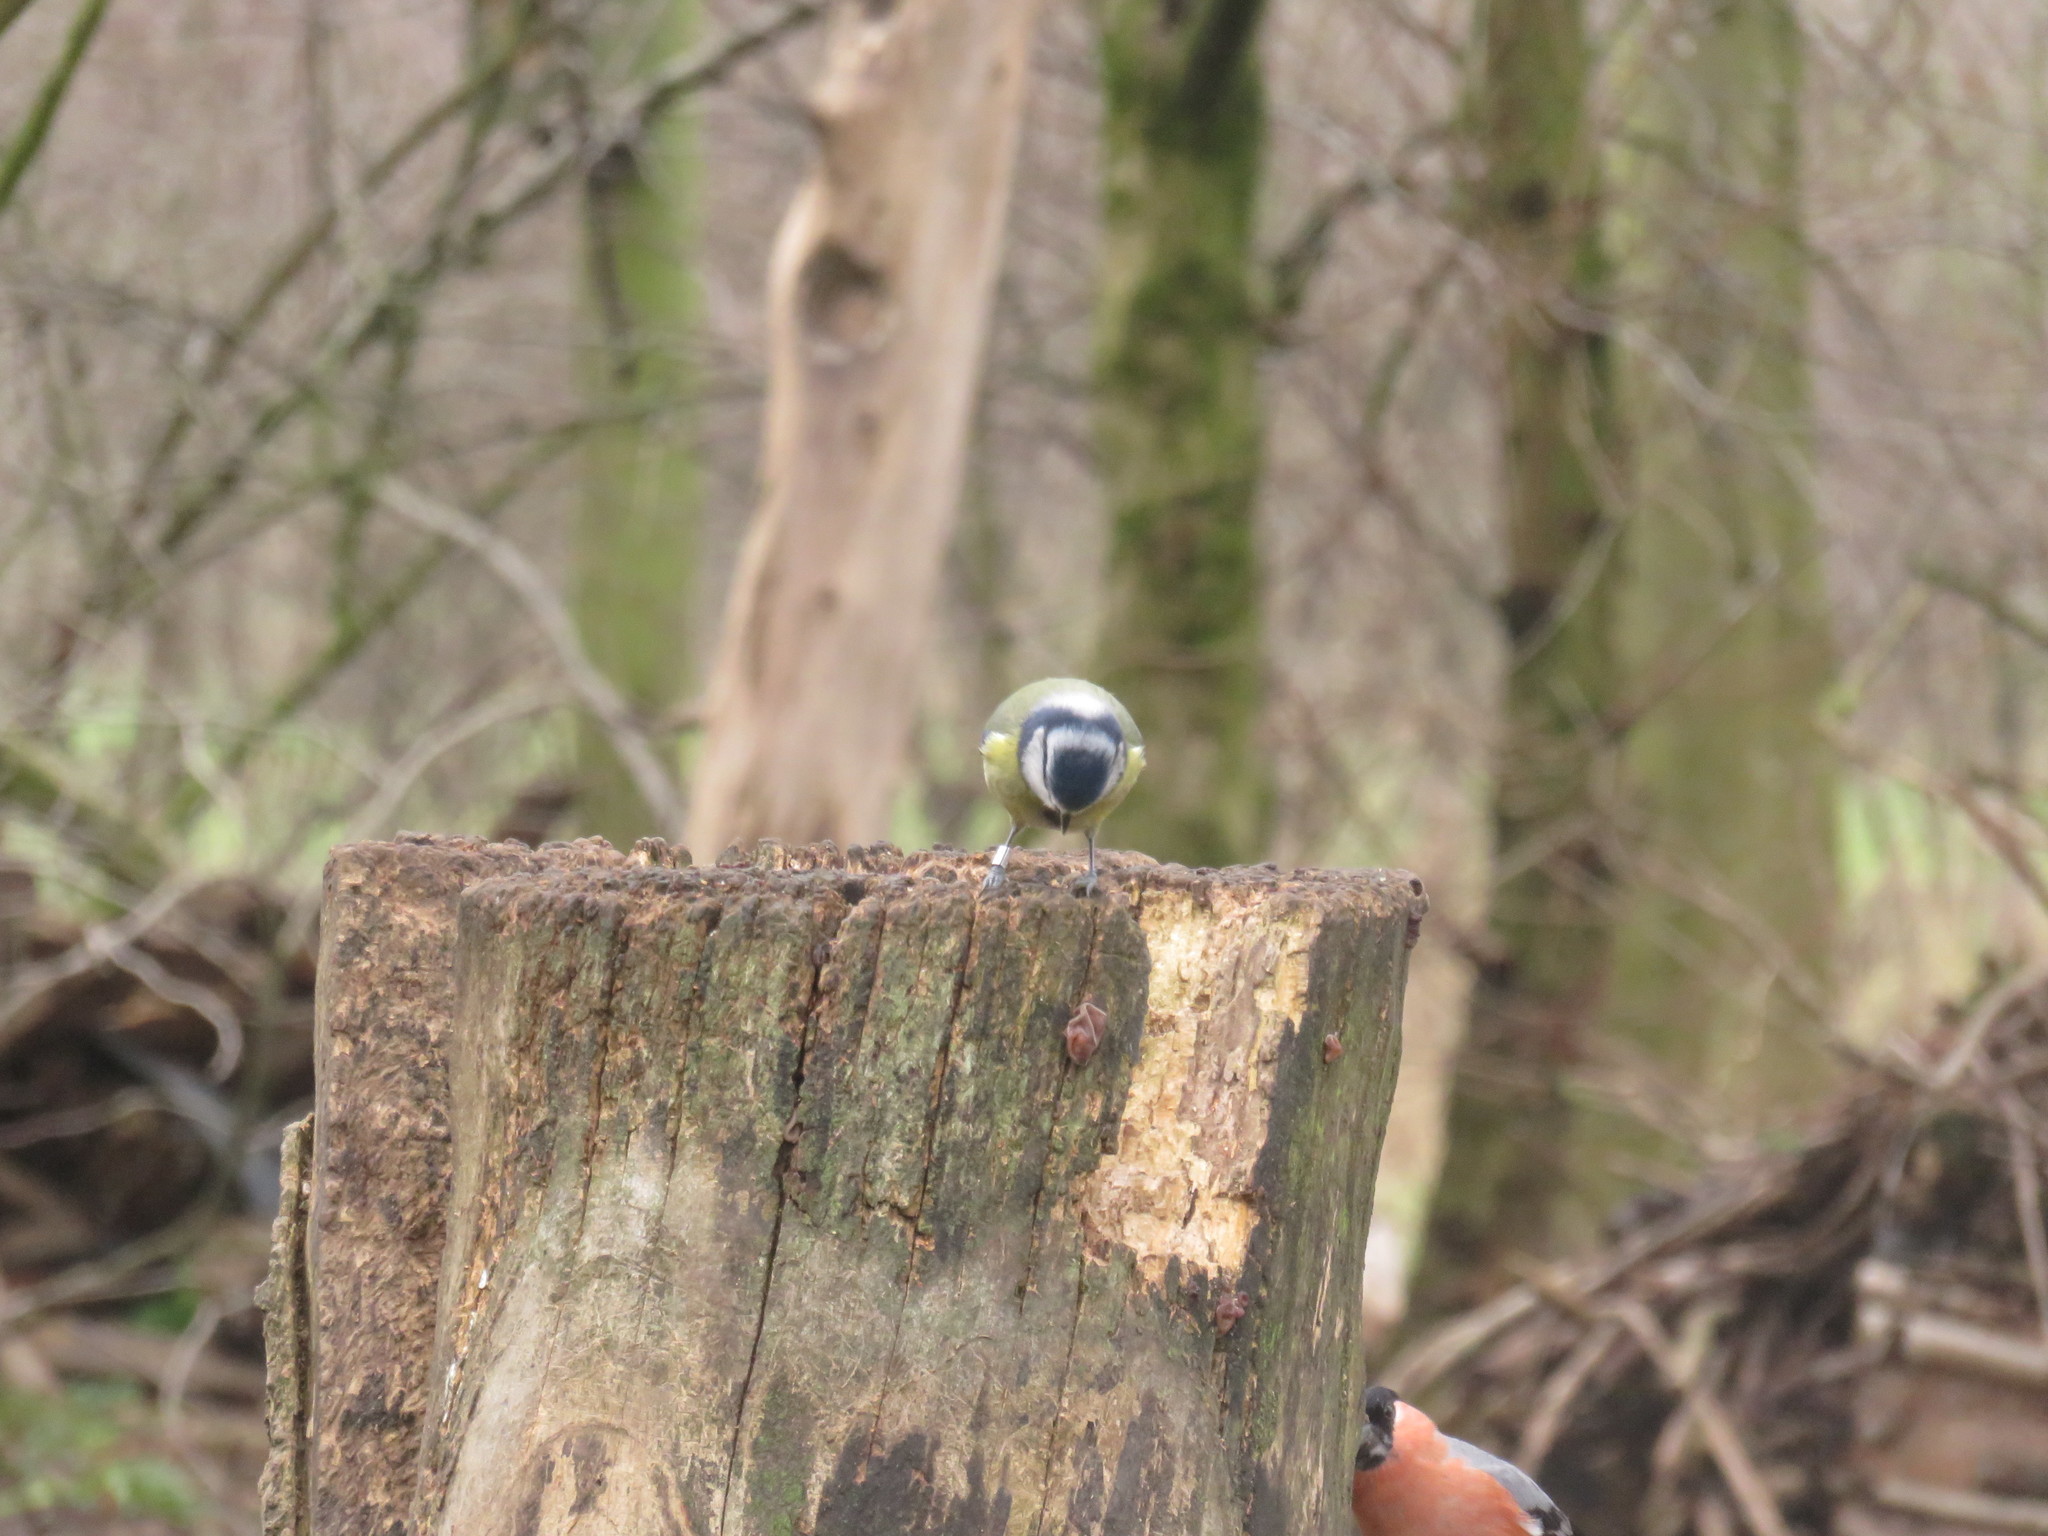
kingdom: Animalia
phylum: Chordata
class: Aves
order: Passeriformes
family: Paridae
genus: Cyanistes
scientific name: Cyanistes caeruleus
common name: Eurasian blue tit
